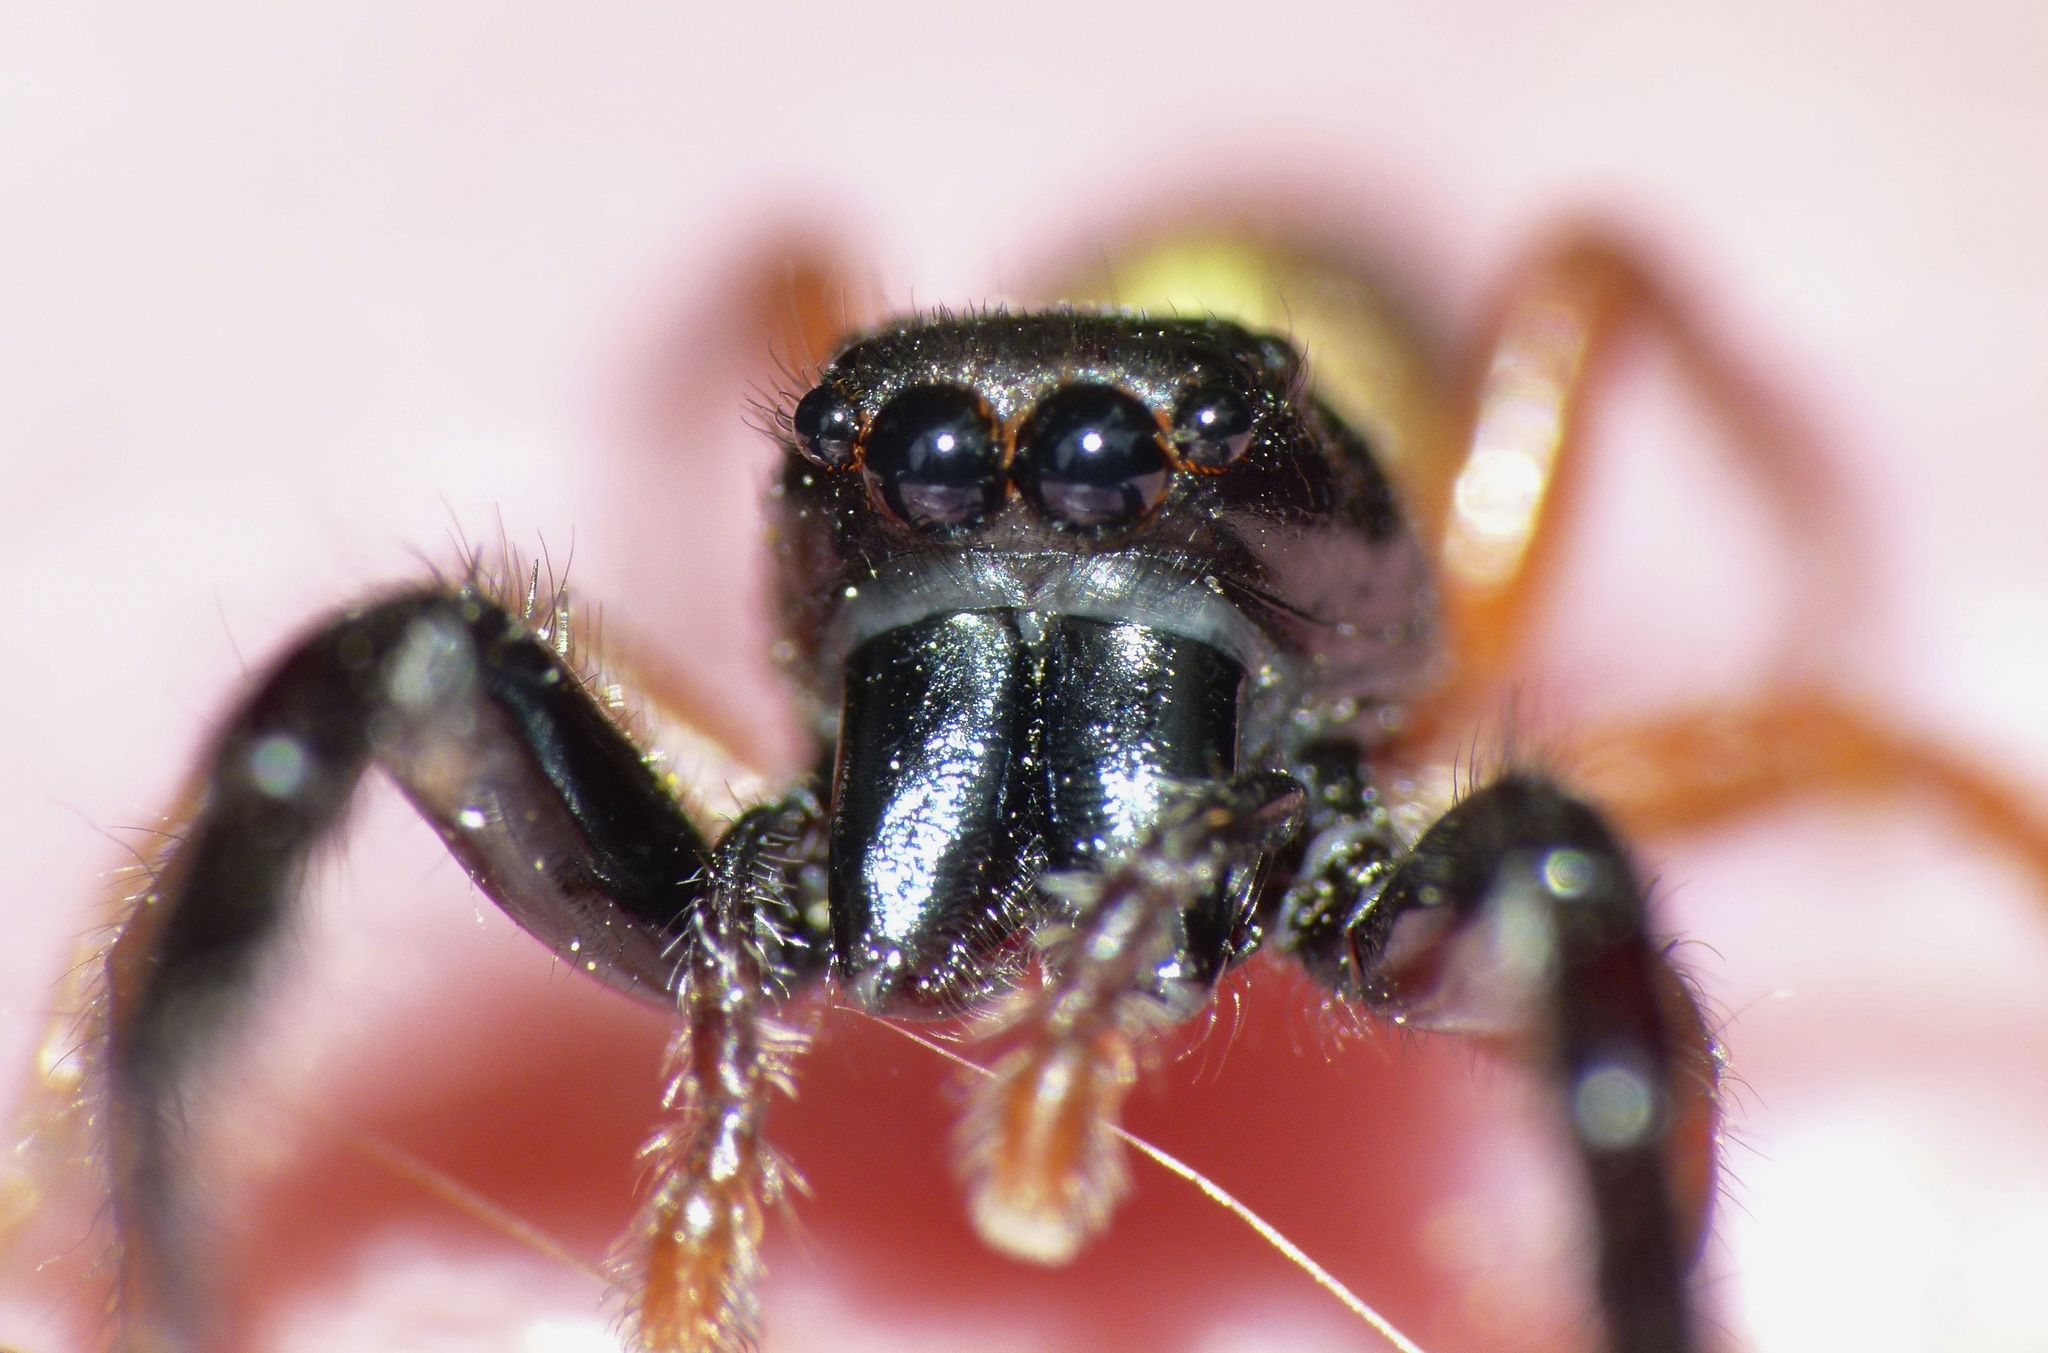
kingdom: Animalia
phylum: Arthropoda
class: Arachnida
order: Araneae
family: Salticidae
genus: Trite
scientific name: Trite planiceps
